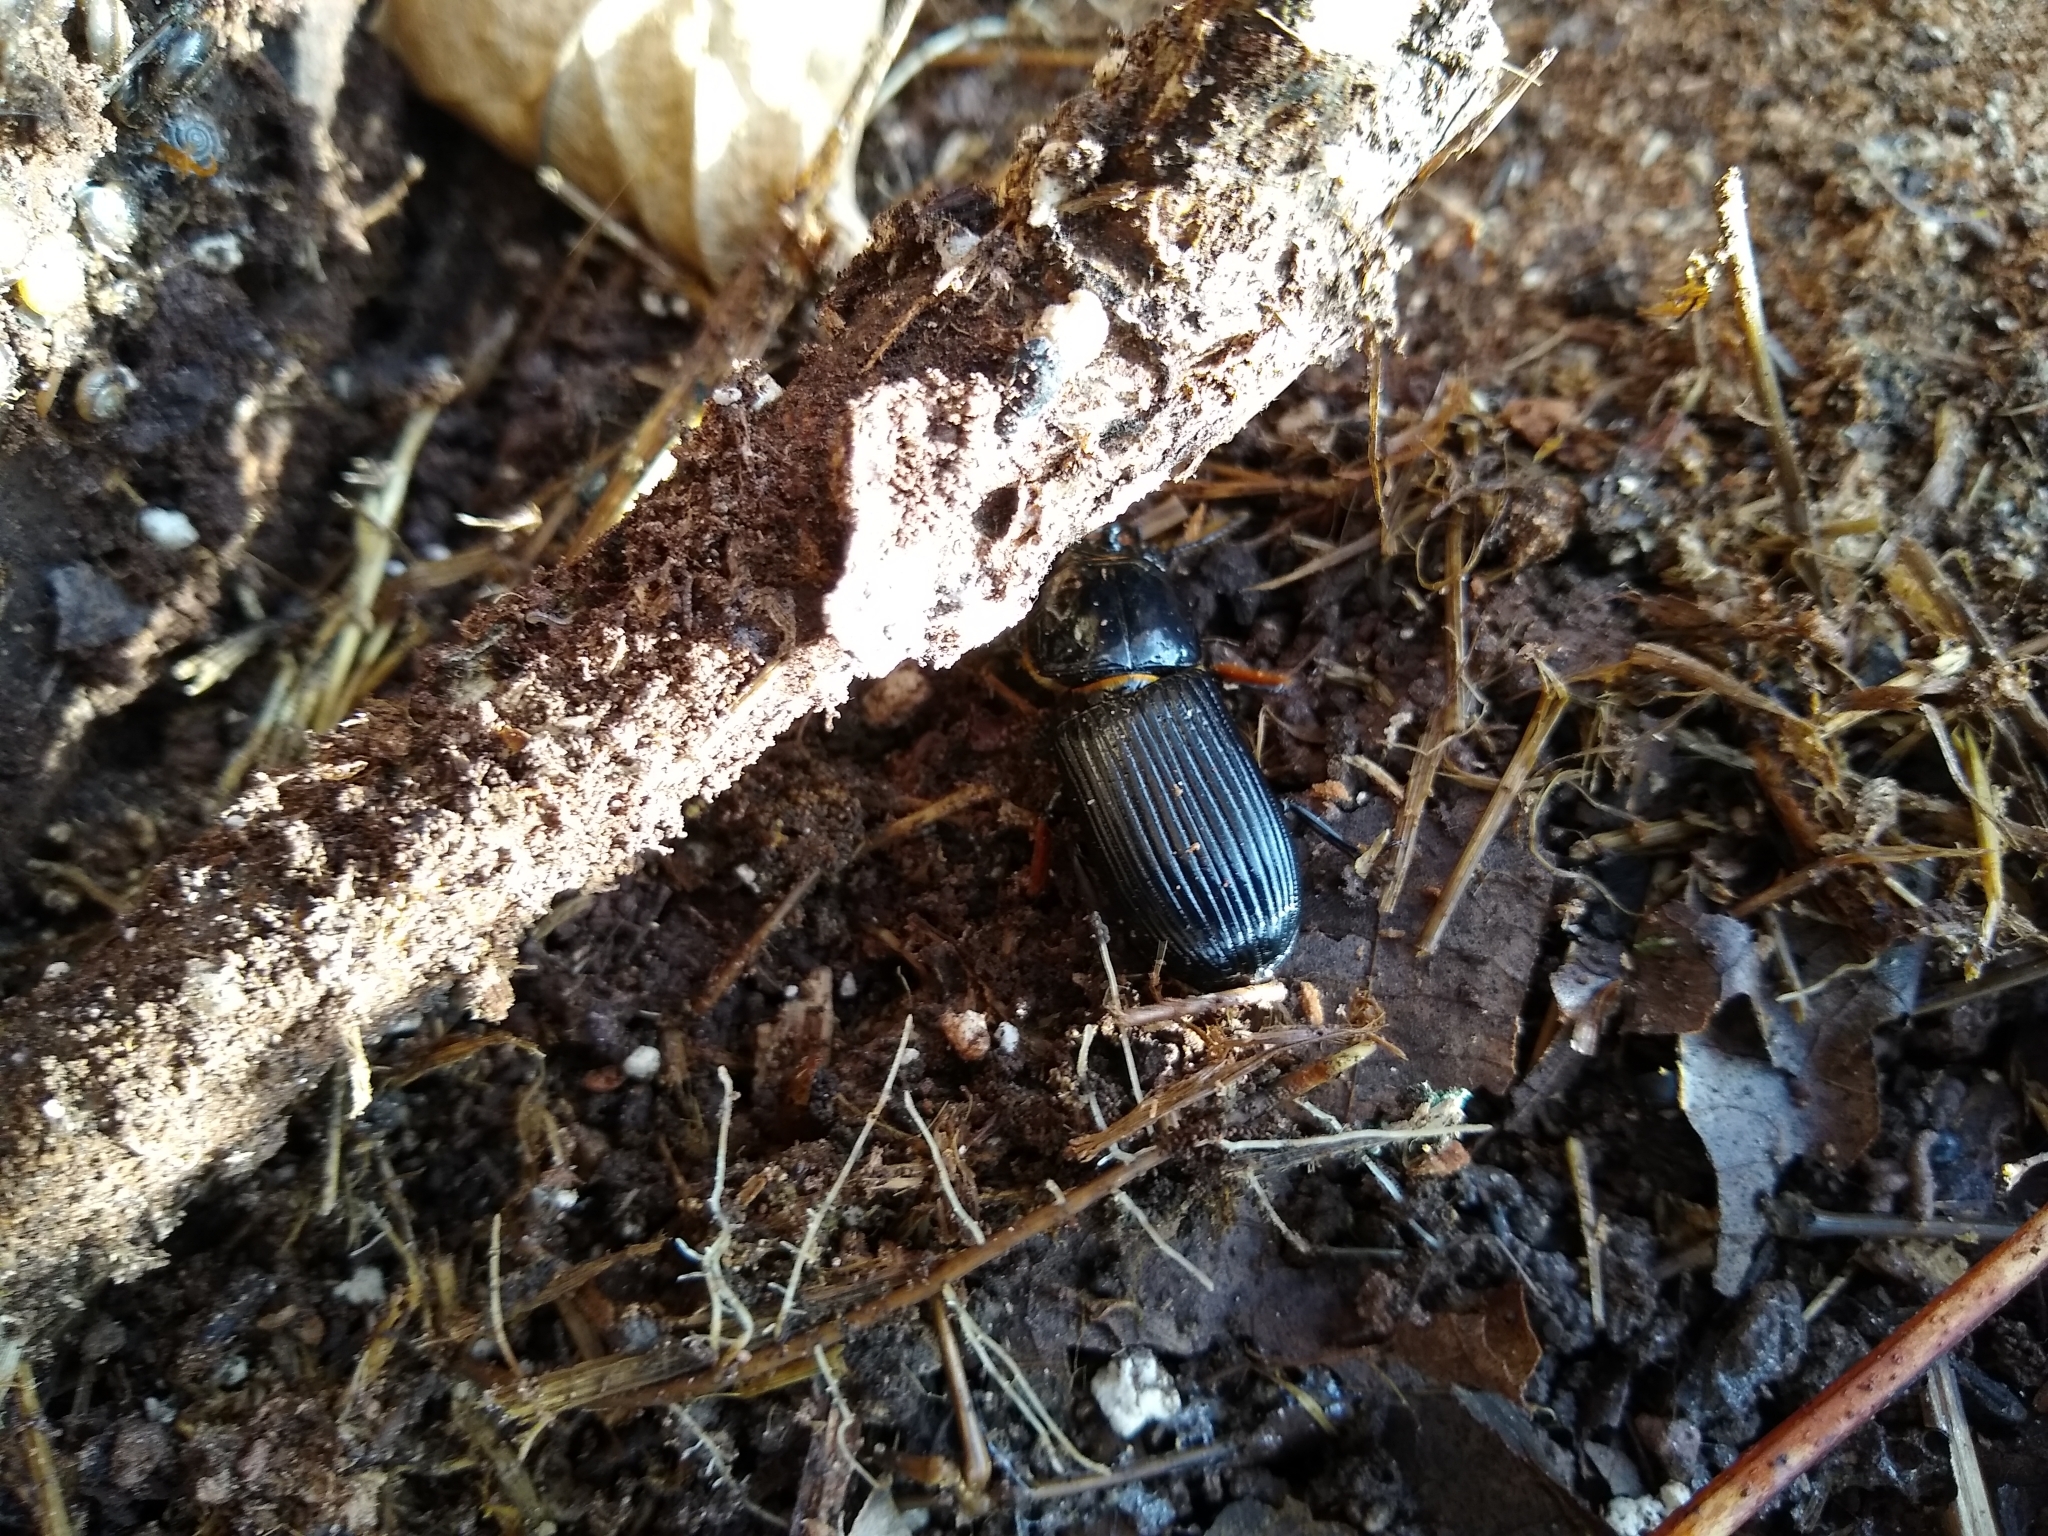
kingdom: Animalia
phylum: Arthropoda
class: Insecta
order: Coleoptera
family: Passalidae
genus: Odontotaenius
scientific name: Odontotaenius disjunctus
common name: Patent leather beetle
